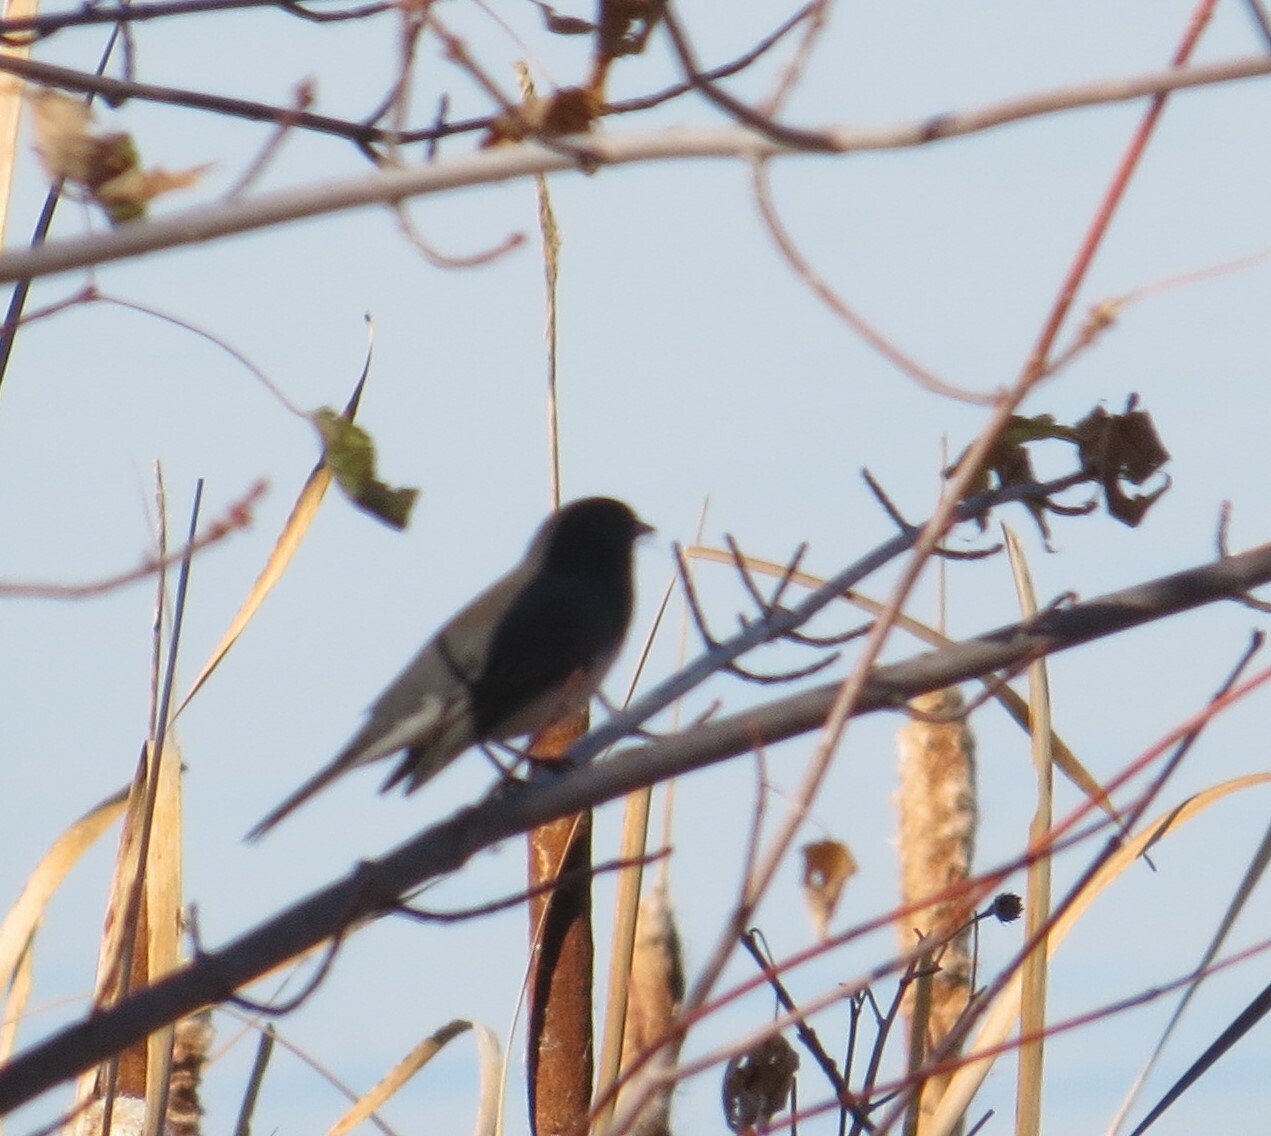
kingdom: Animalia
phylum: Chordata
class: Aves
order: Passeriformes
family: Passerellidae
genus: Junco
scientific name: Junco hyemalis
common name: Dark-eyed junco
